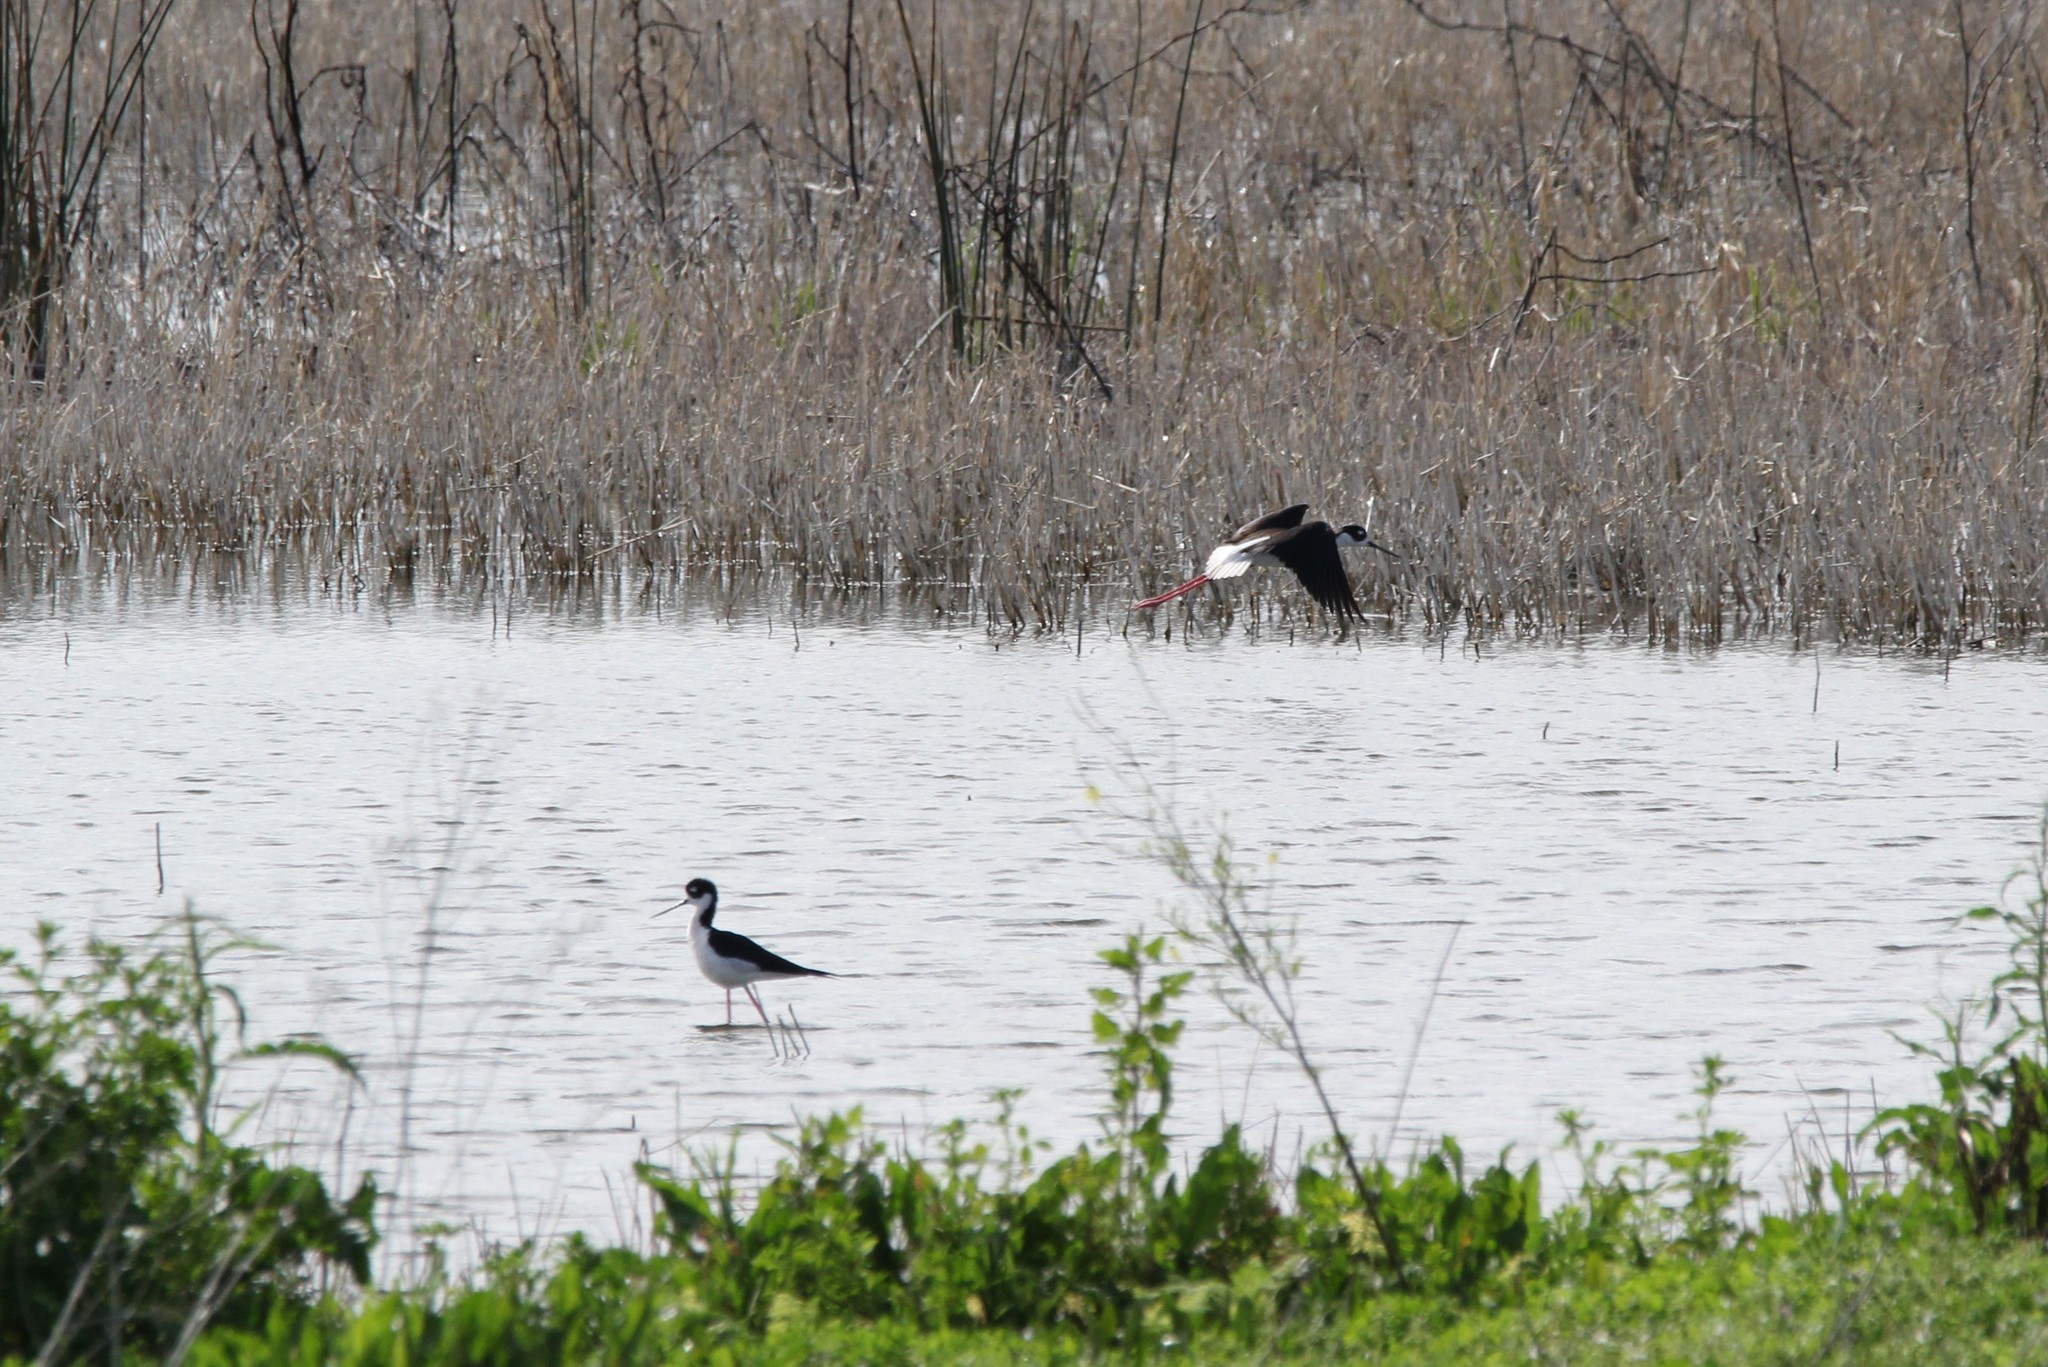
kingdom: Animalia
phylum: Chordata
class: Aves
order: Charadriiformes
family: Recurvirostridae
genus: Himantopus
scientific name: Himantopus mexicanus
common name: Black-necked stilt
